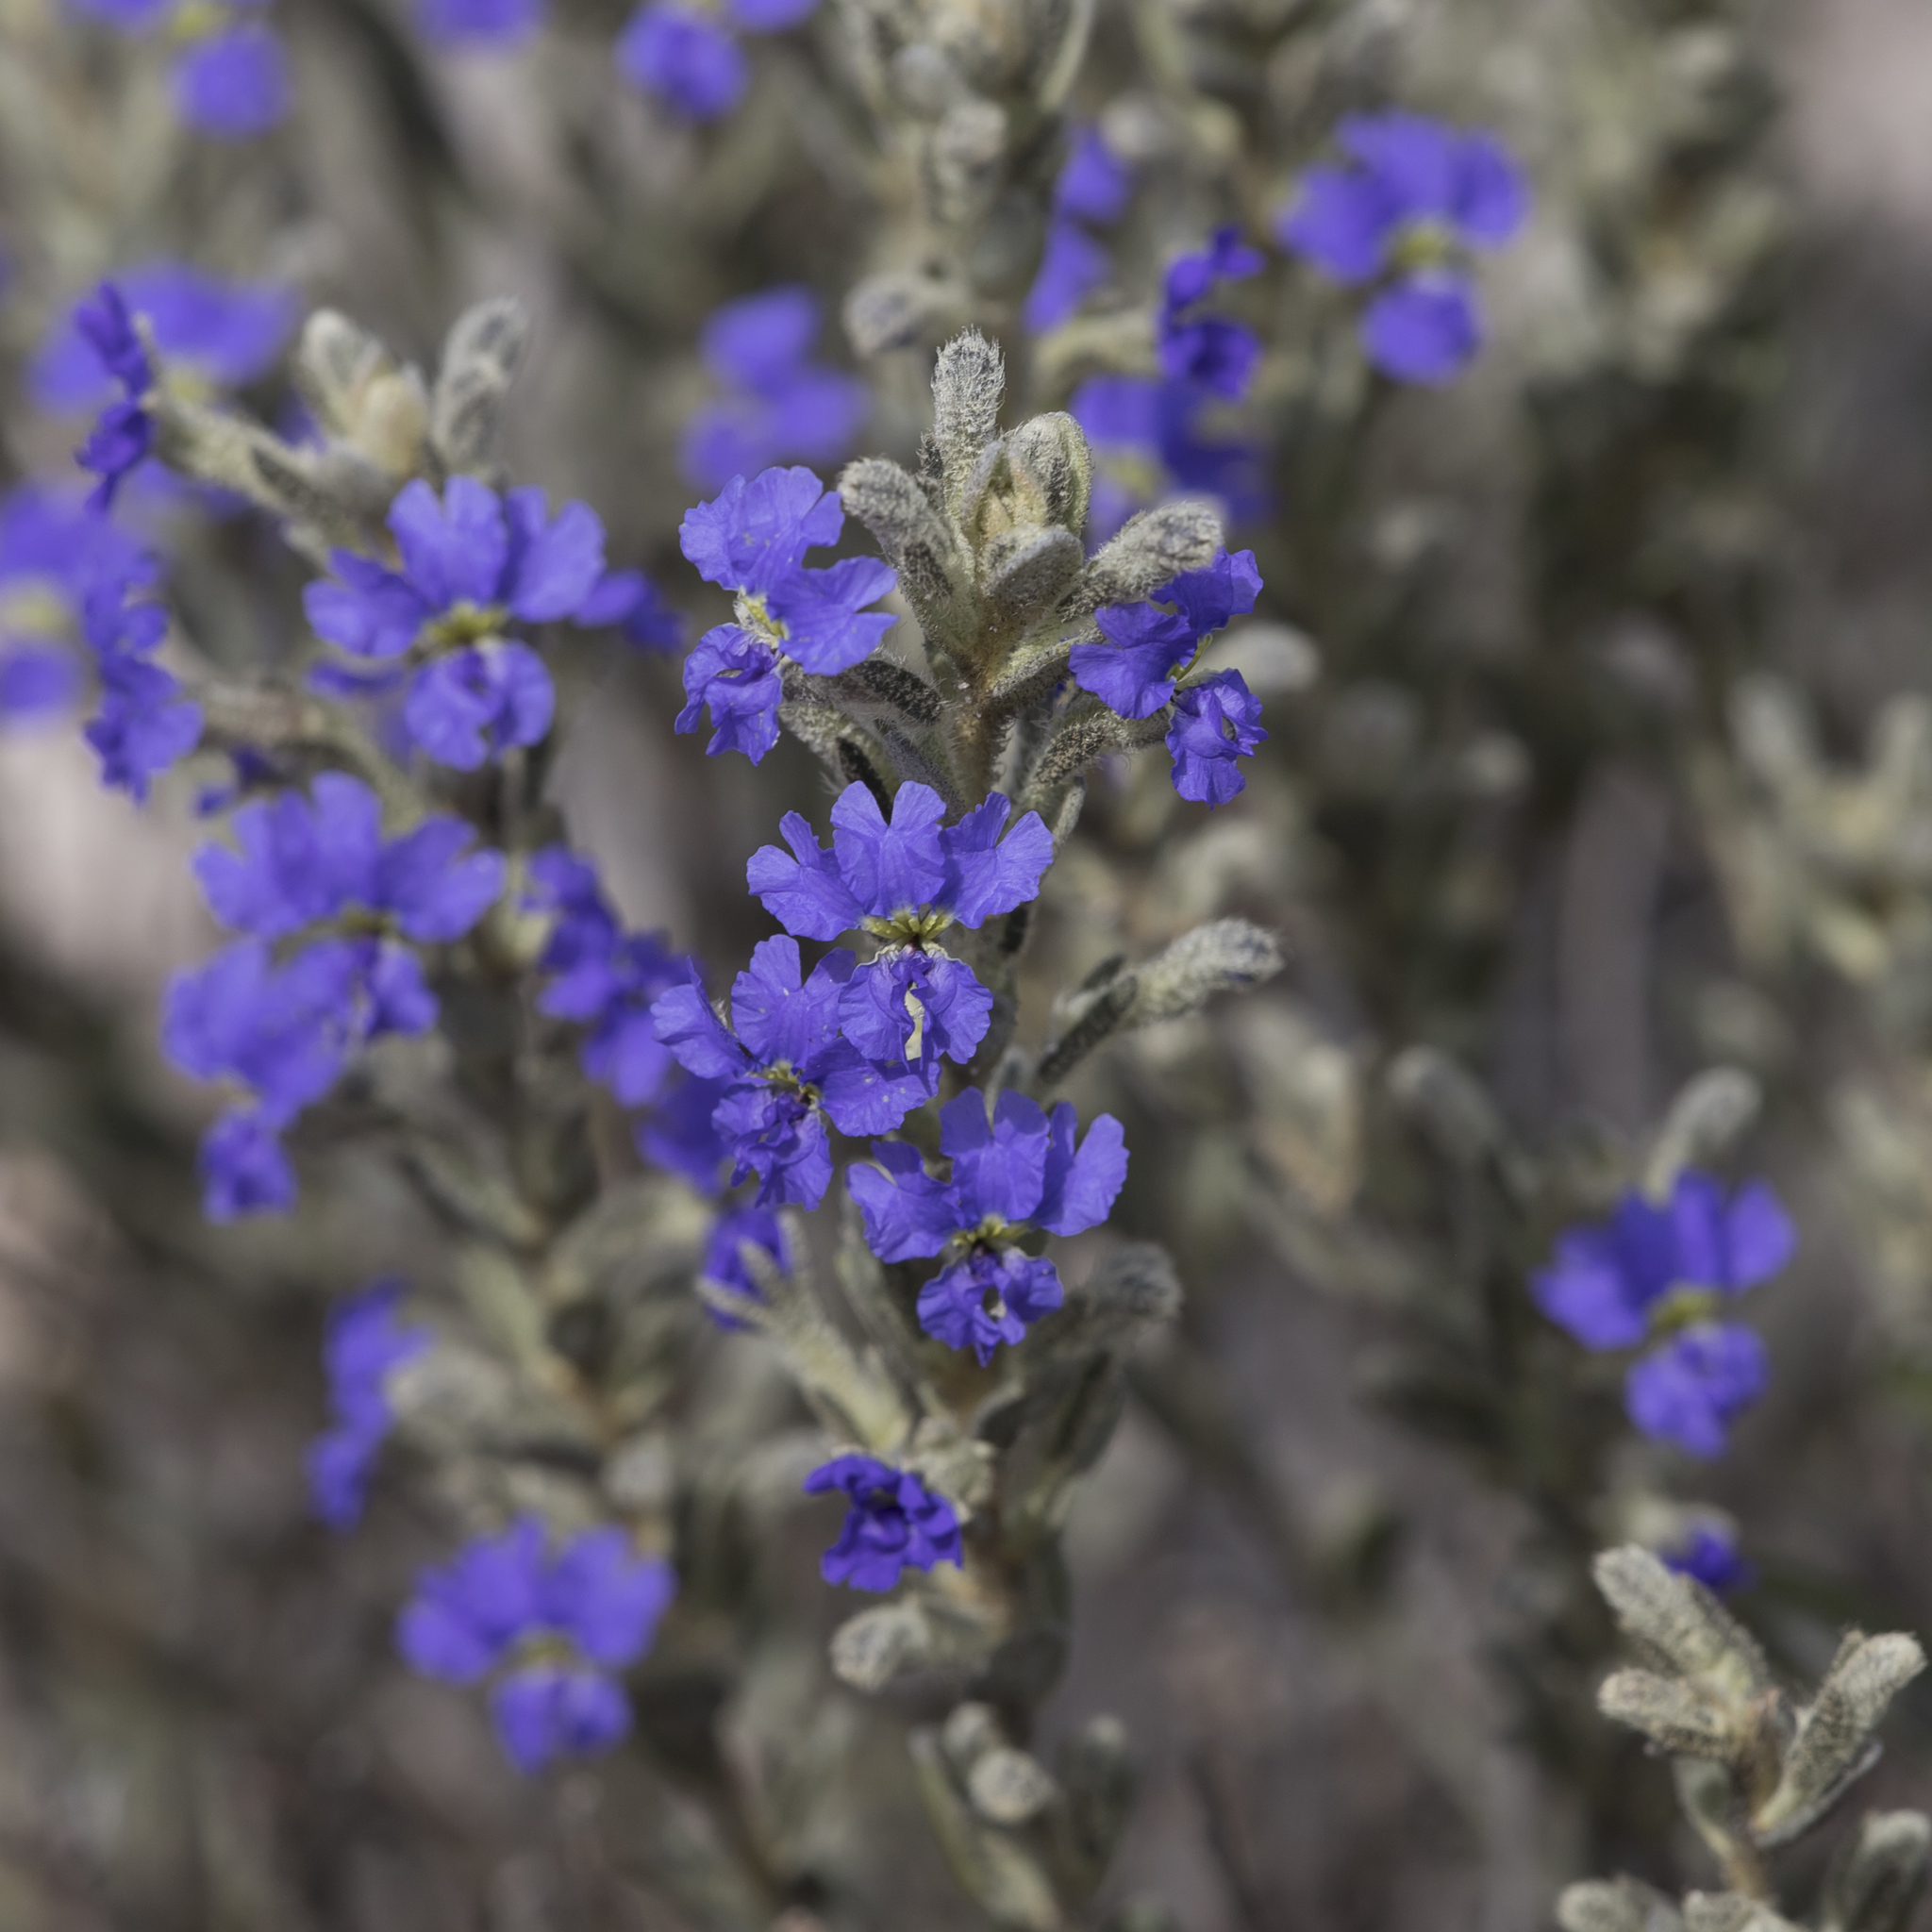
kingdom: Plantae
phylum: Tracheophyta
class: Magnoliopsida
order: Asterales
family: Goodeniaceae
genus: Dampiera
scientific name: Dampiera marifolia
